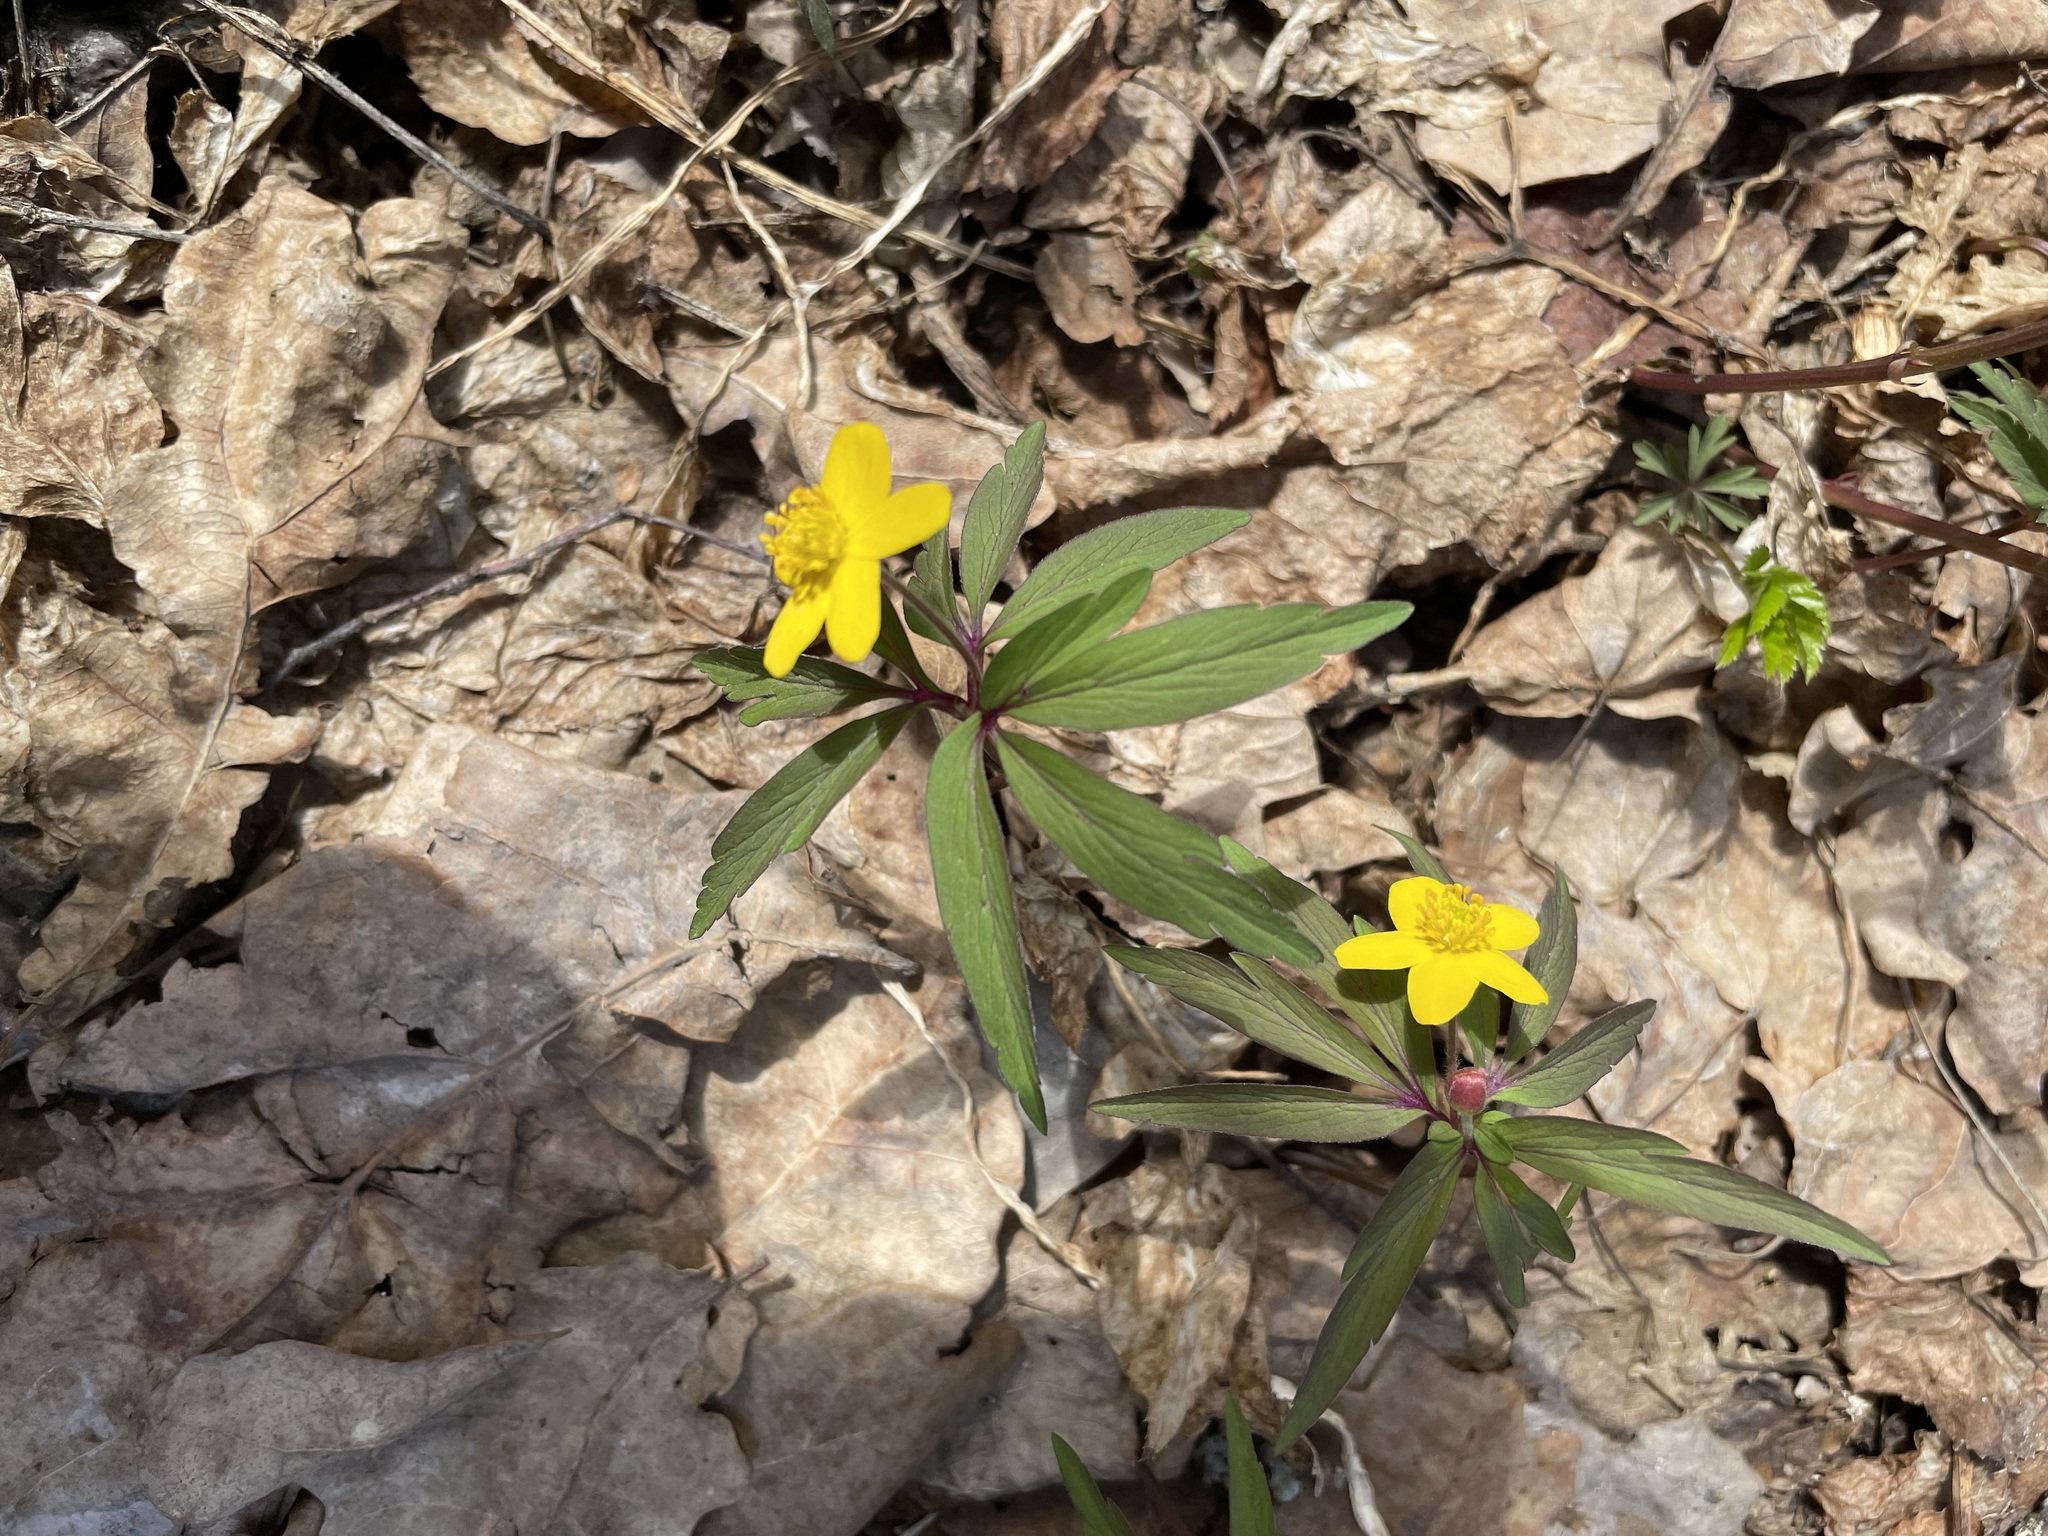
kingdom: Plantae
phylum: Tracheophyta
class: Magnoliopsida
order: Ranunculales
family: Ranunculaceae
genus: Anemone
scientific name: Anemone ranunculoides
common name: Yellow anemone
